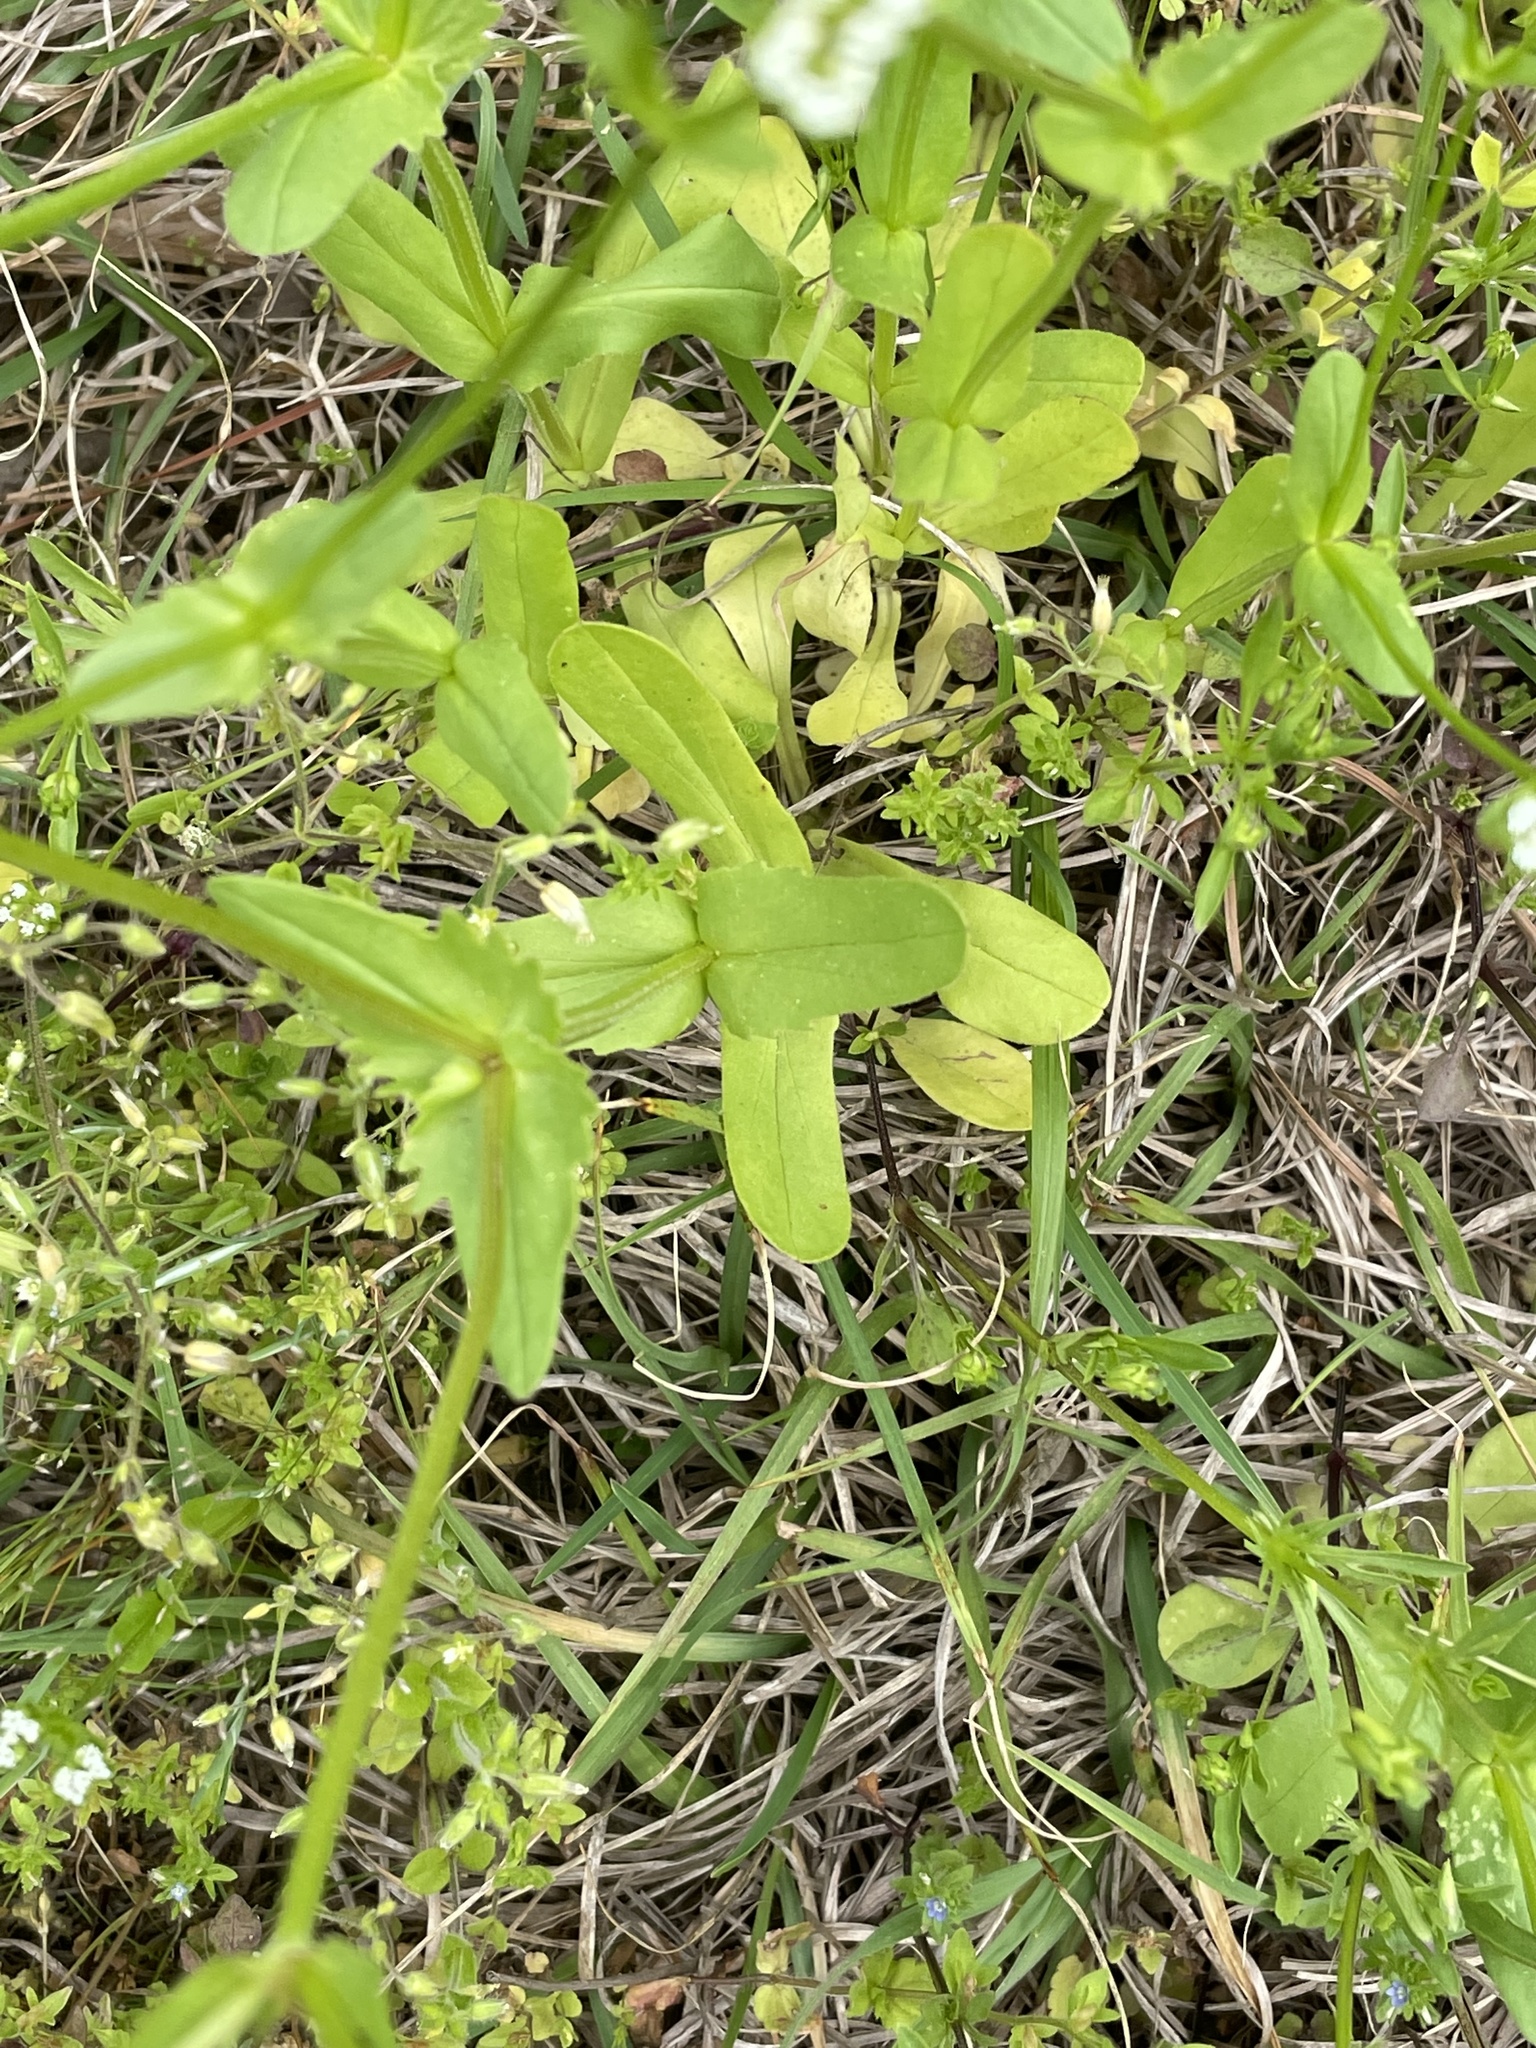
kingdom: Plantae
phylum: Tracheophyta
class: Magnoliopsida
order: Dipsacales
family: Caprifoliaceae
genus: Valerianella
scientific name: Valerianella radiata
